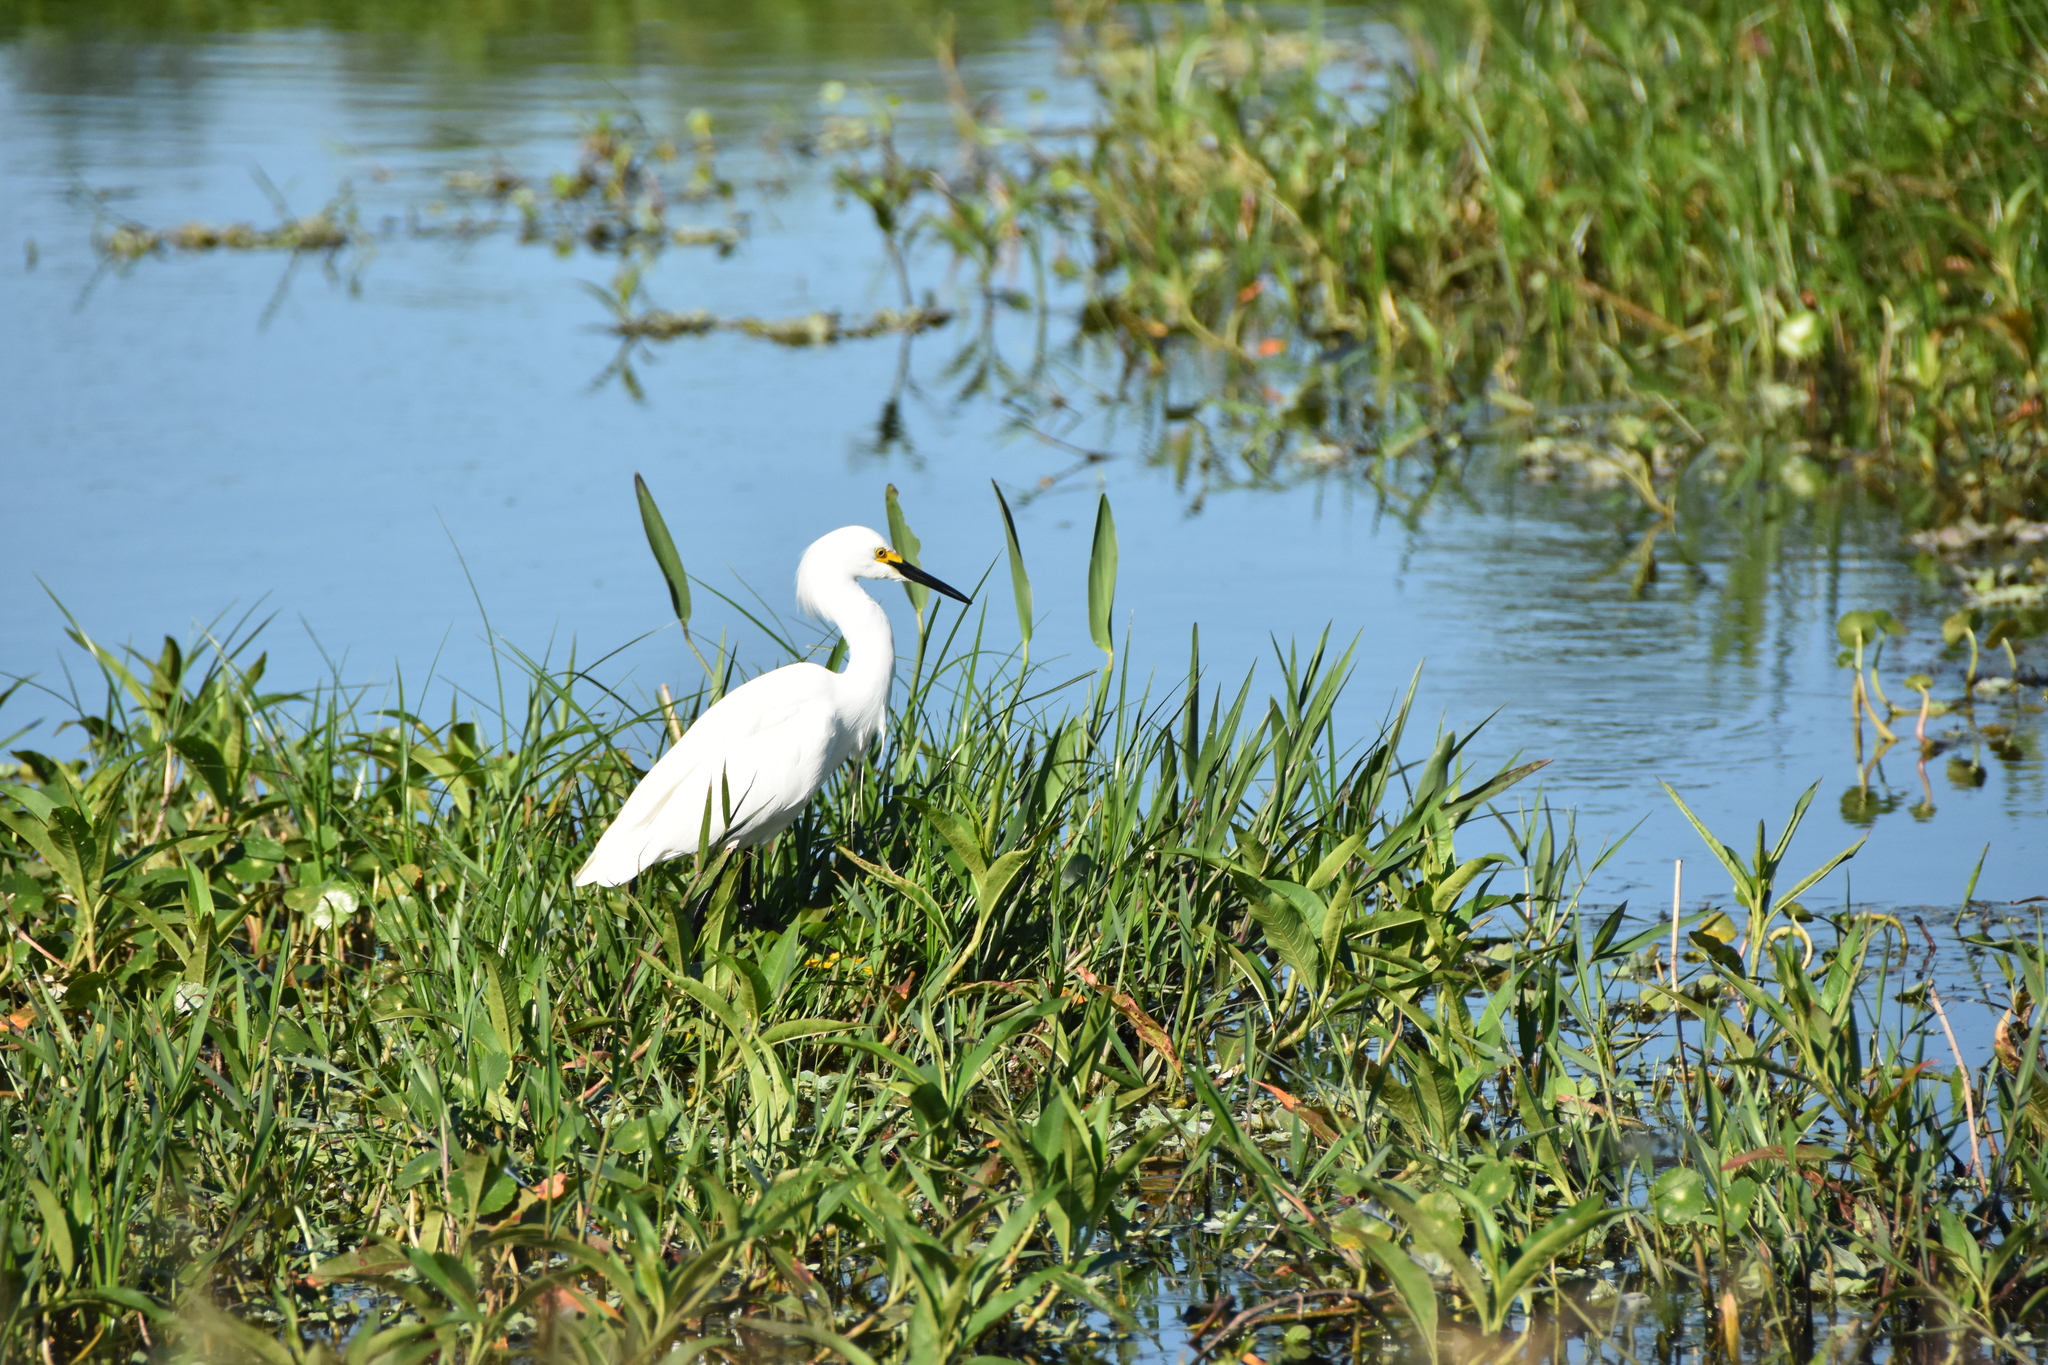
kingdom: Animalia
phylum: Chordata
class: Aves
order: Pelecaniformes
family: Ardeidae
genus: Egretta
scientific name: Egretta thula
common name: Snowy egret
